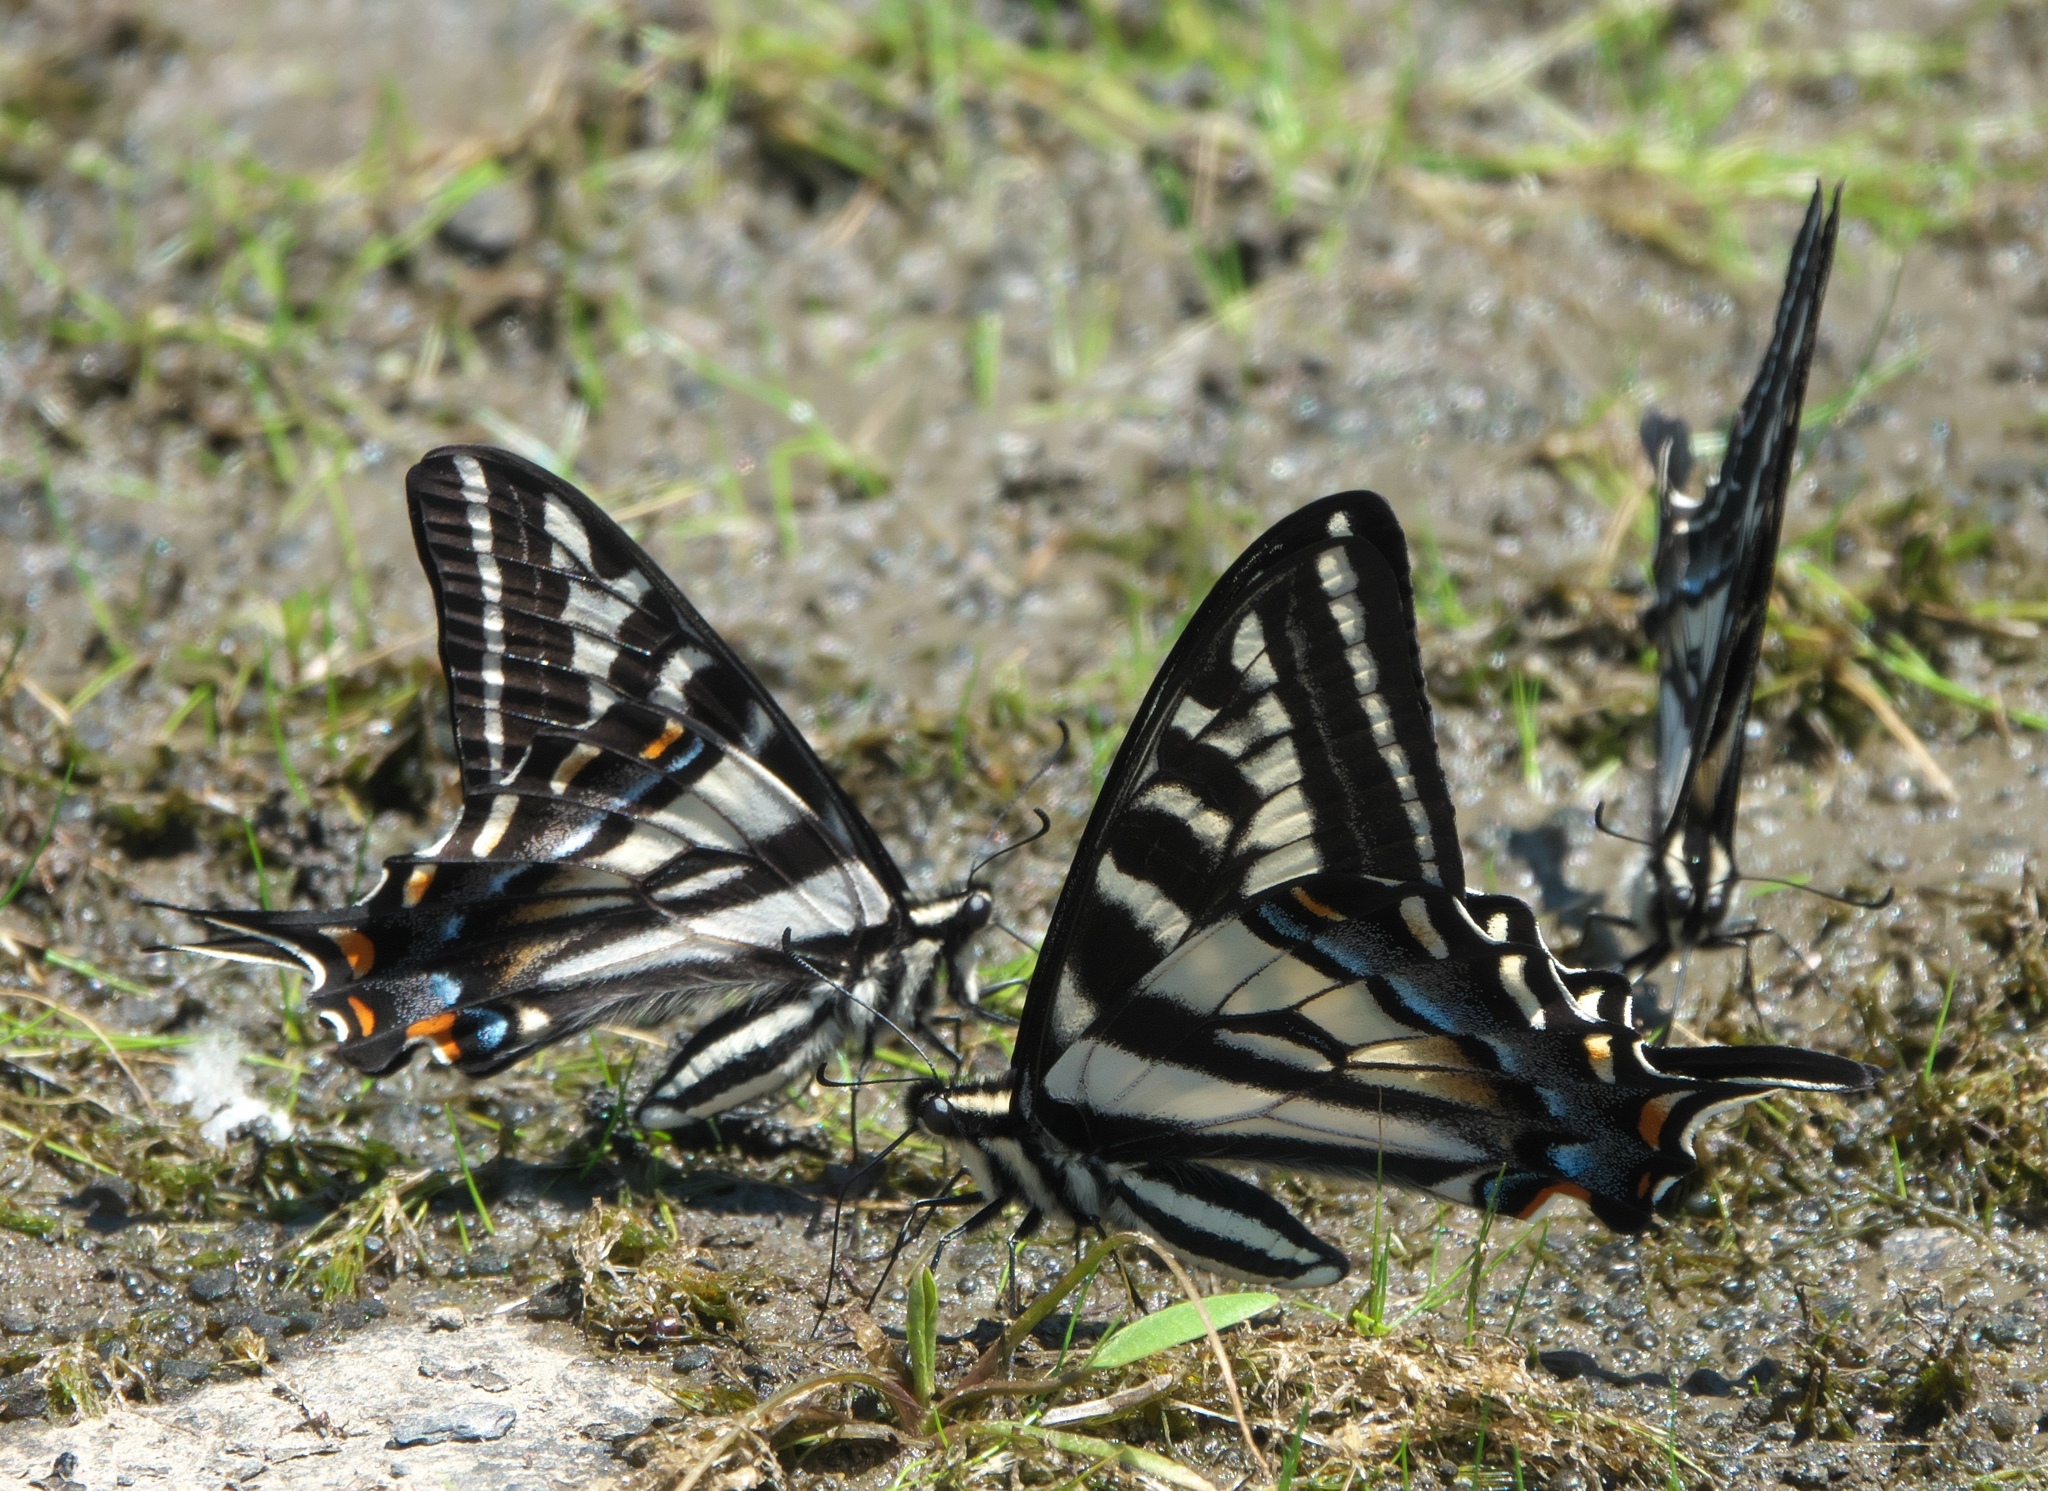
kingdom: Animalia
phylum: Arthropoda
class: Insecta
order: Lepidoptera
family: Papilionidae
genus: Papilio
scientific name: Papilio eurymedon
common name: Pale tiger swallowtail
